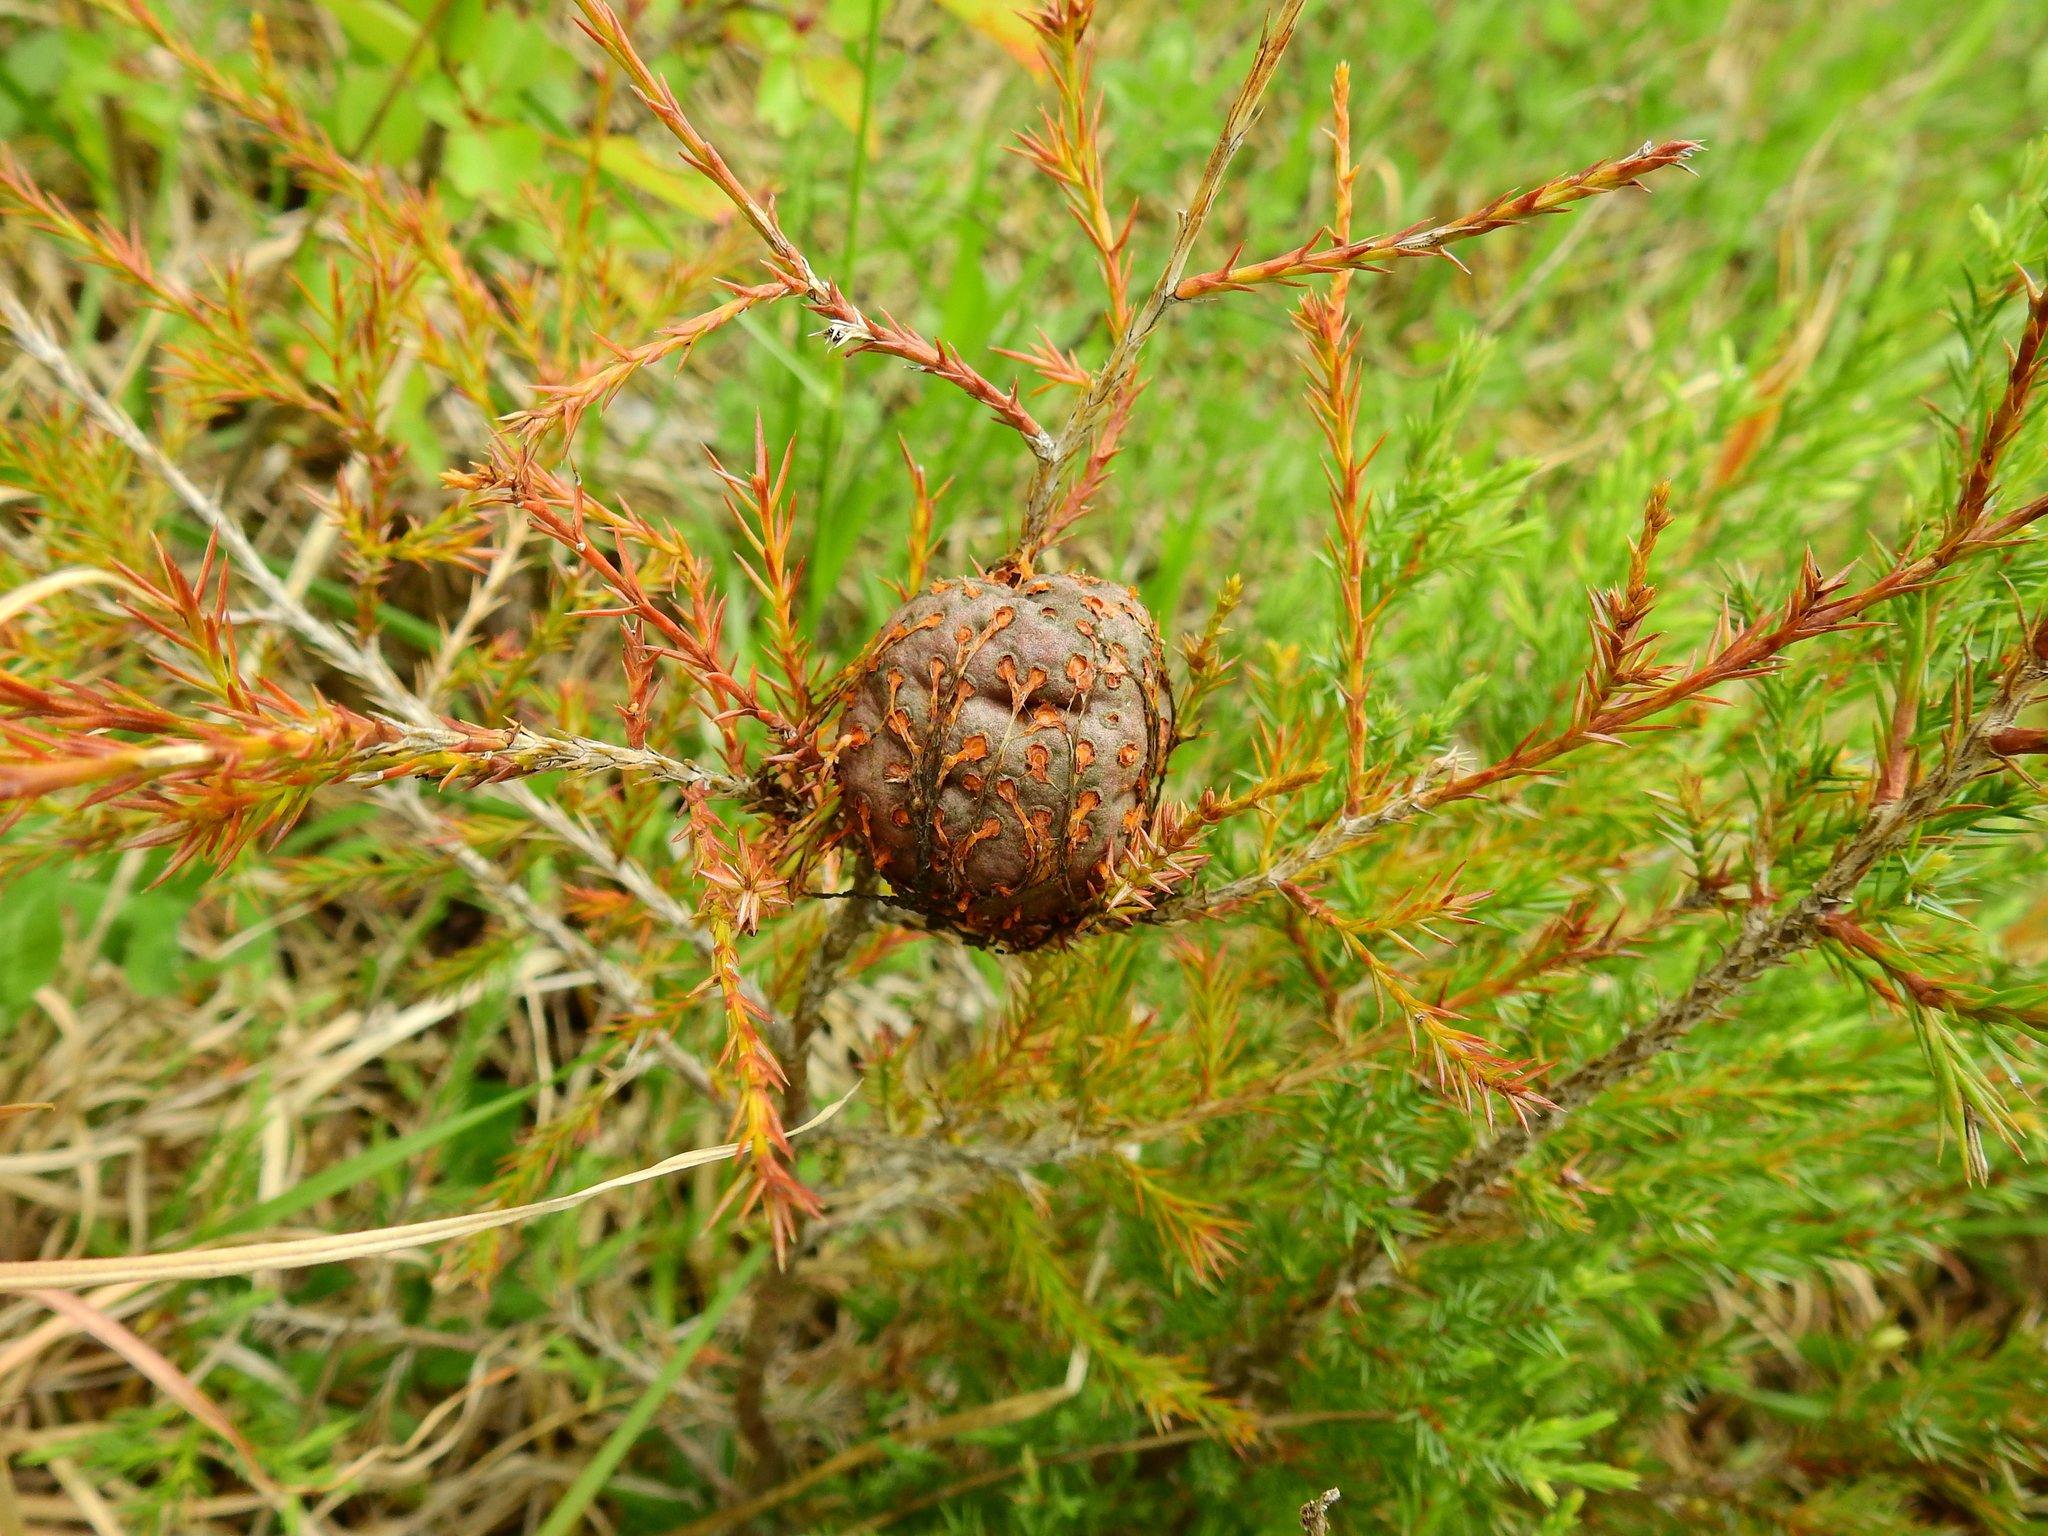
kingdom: Fungi
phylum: Basidiomycota
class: Pucciniomycetes
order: Pucciniales
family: Gymnosporangiaceae
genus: Gymnosporangium
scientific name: Gymnosporangium juniperi-virginianae
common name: Juniper-apple rust
